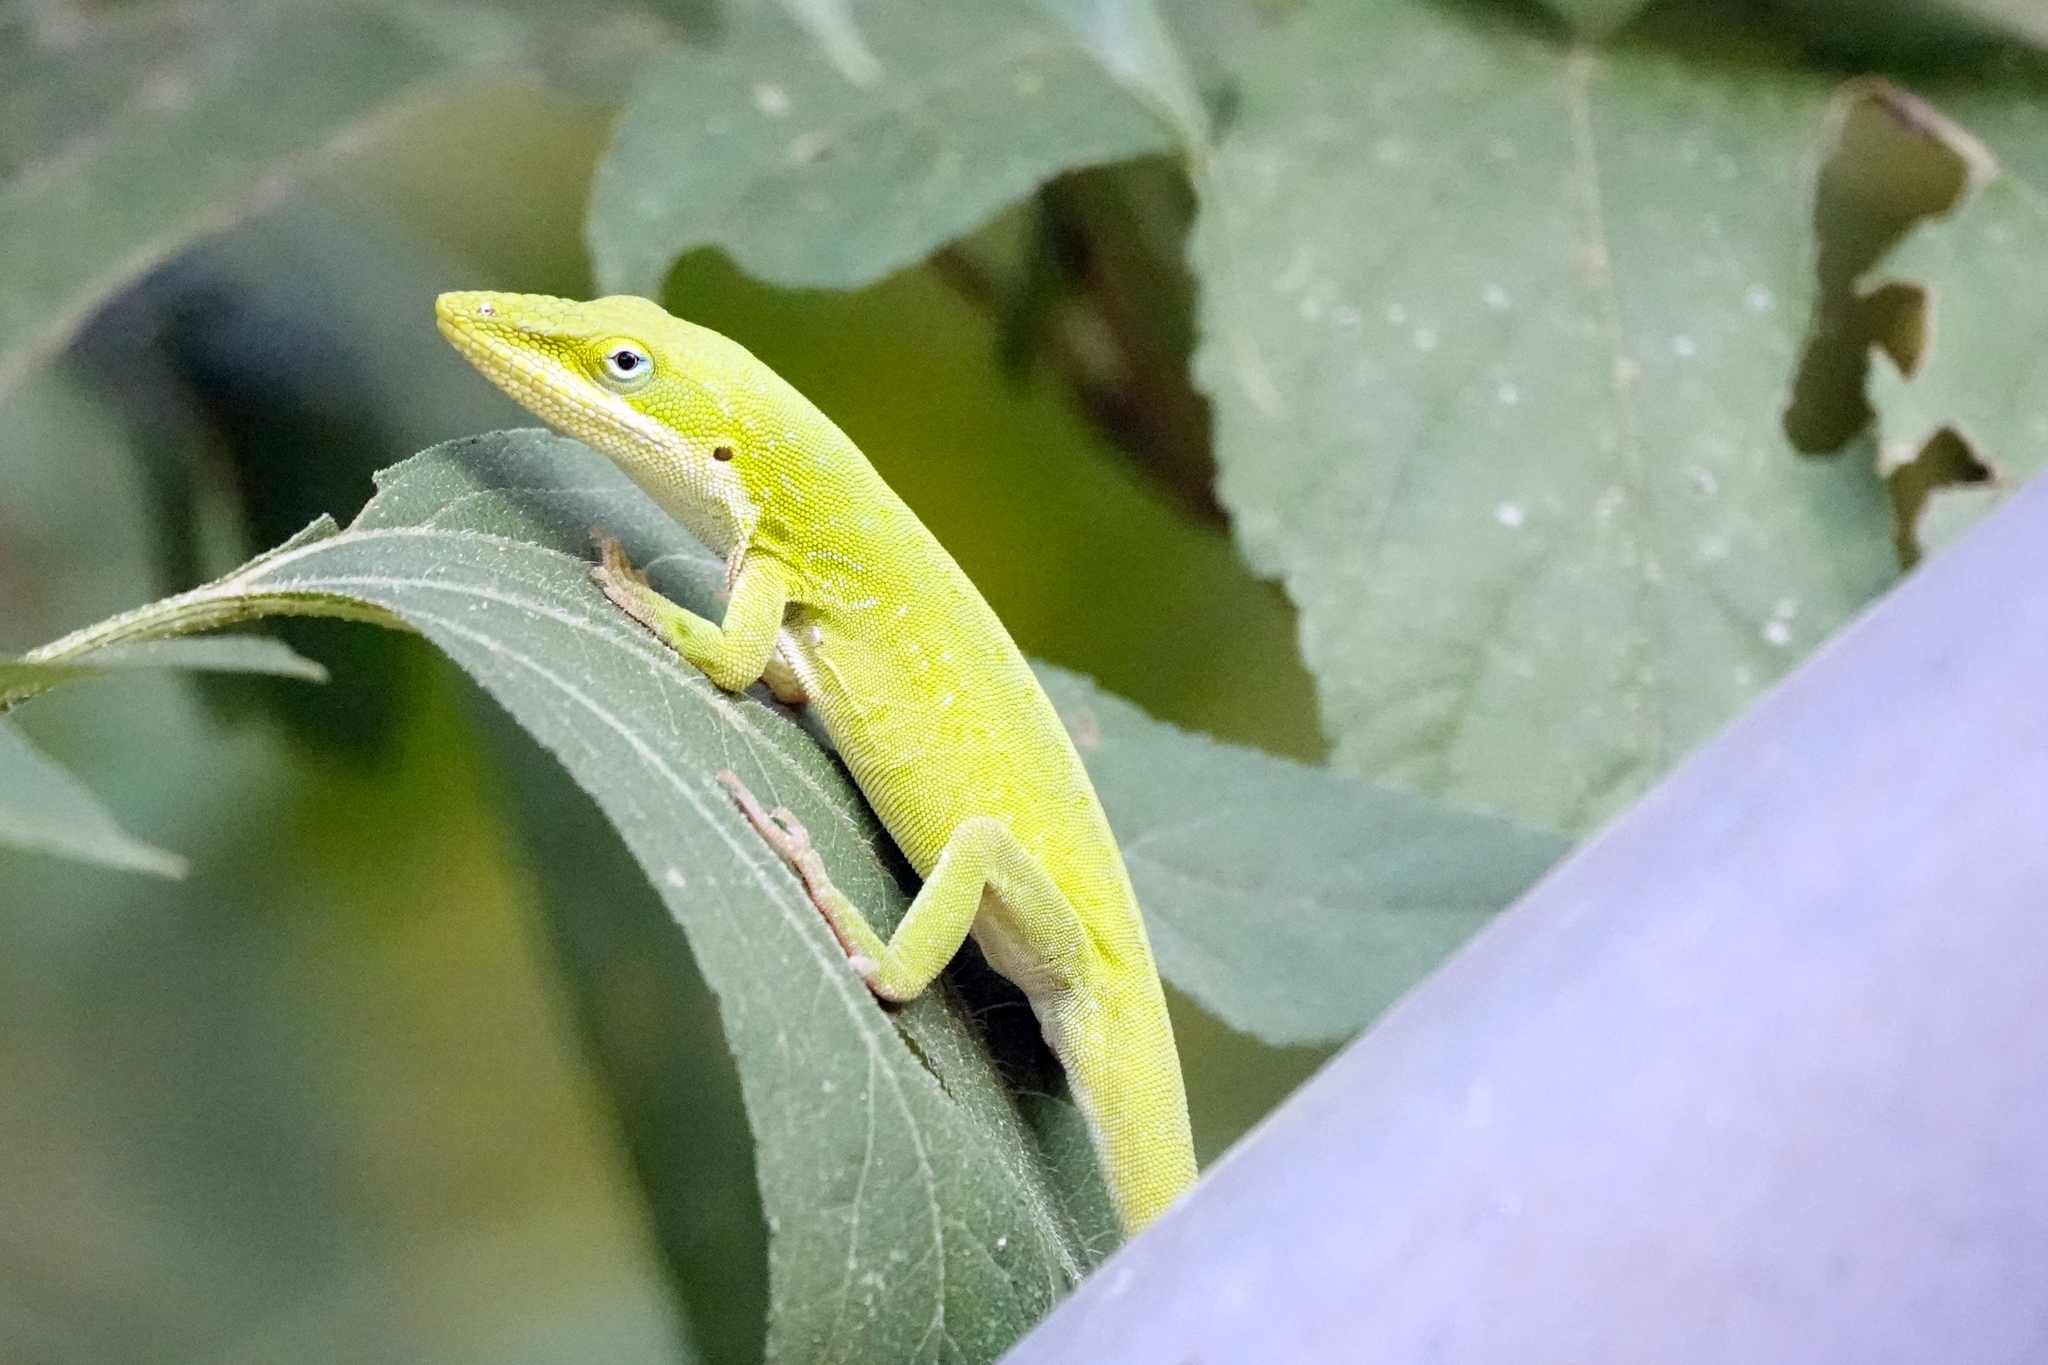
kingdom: Animalia
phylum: Chordata
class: Squamata
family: Dactyloidae
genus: Anolis
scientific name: Anolis carolinensis
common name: Green anole
